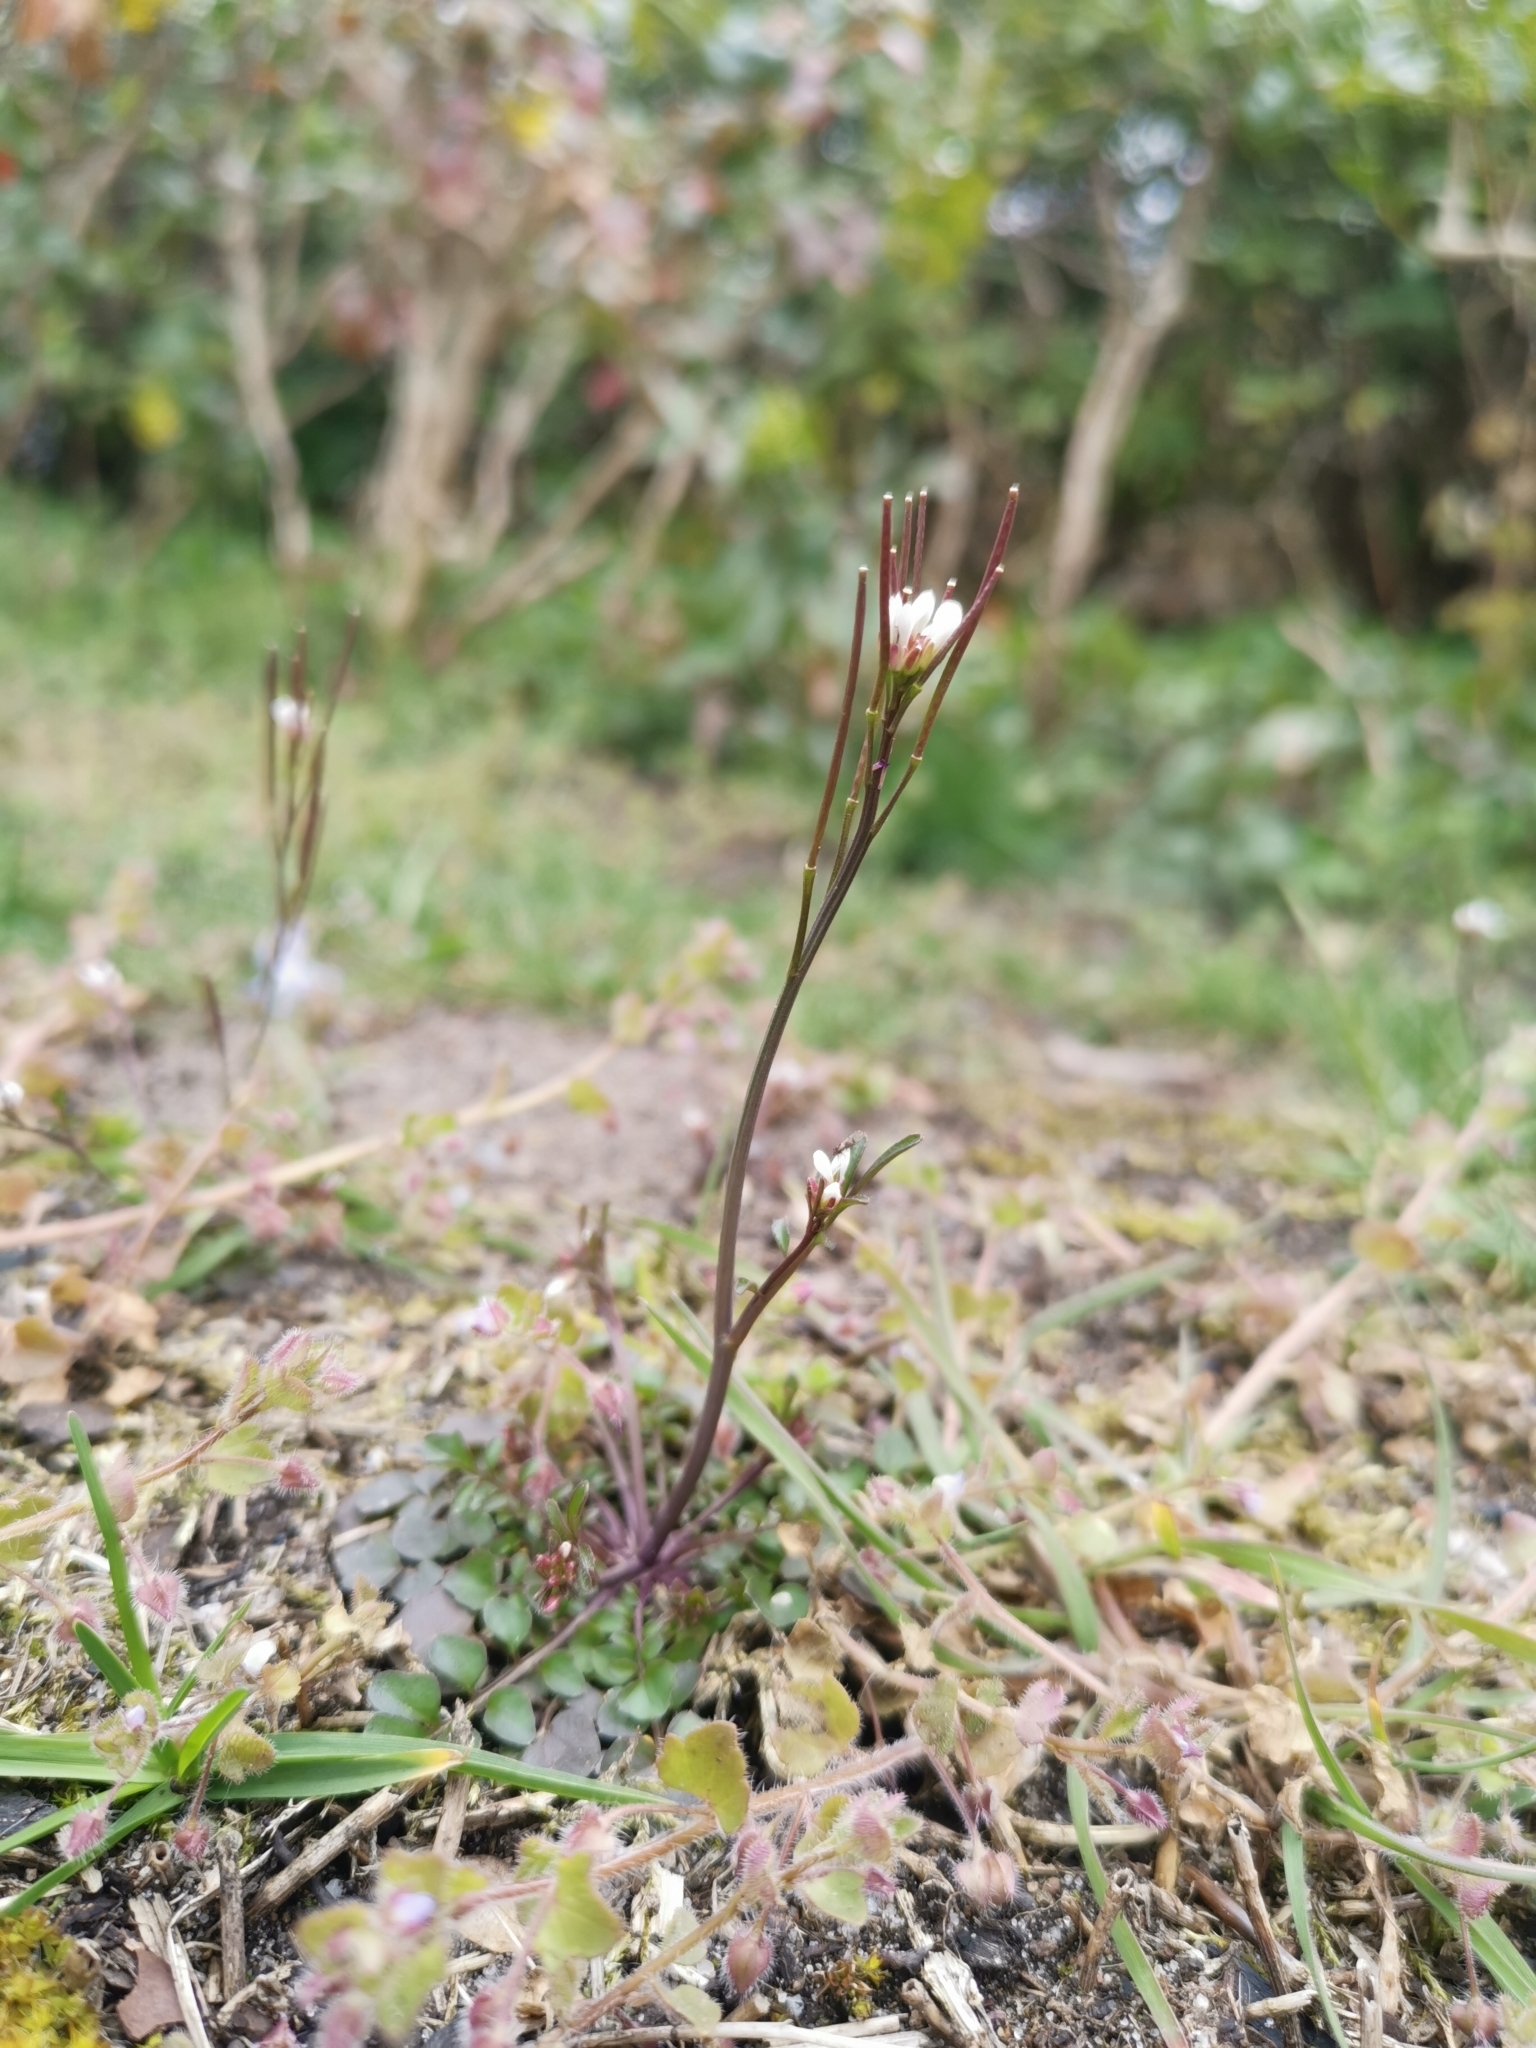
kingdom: Plantae
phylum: Tracheophyta
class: Magnoliopsida
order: Brassicales
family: Brassicaceae
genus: Cardamine
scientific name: Cardamine hirsuta
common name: Hairy bittercress
